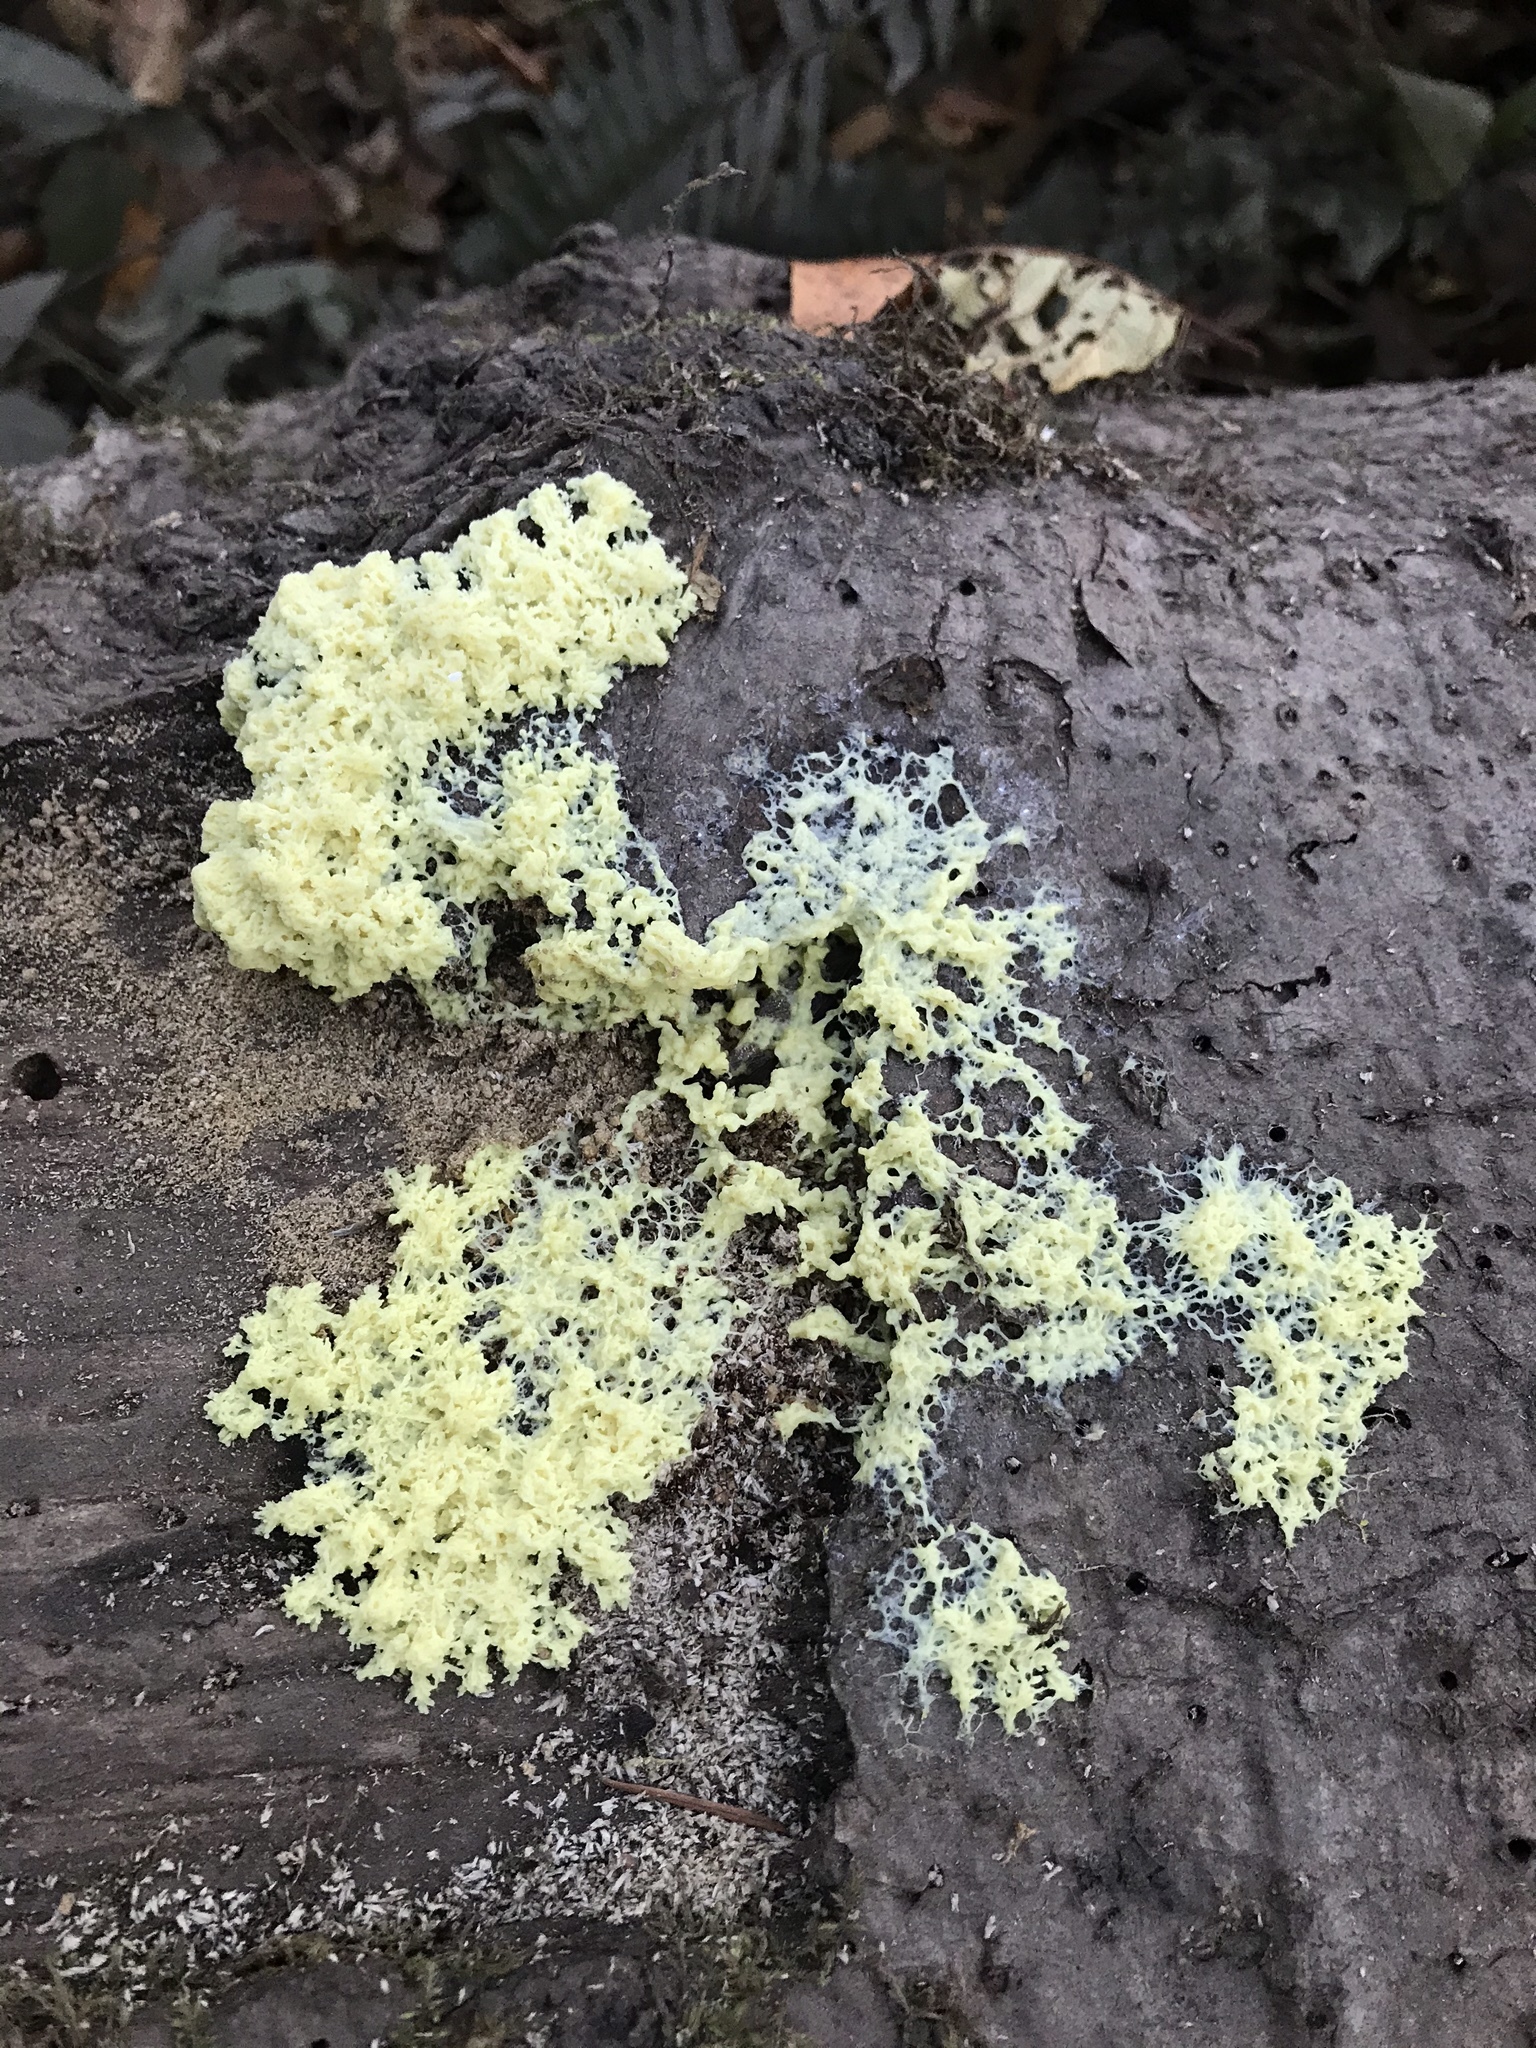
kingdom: Protozoa
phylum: Mycetozoa
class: Myxomycetes
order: Physarales
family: Physaraceae
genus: Fuligo
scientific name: Fuligo septica
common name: Dog vomit slime mold
